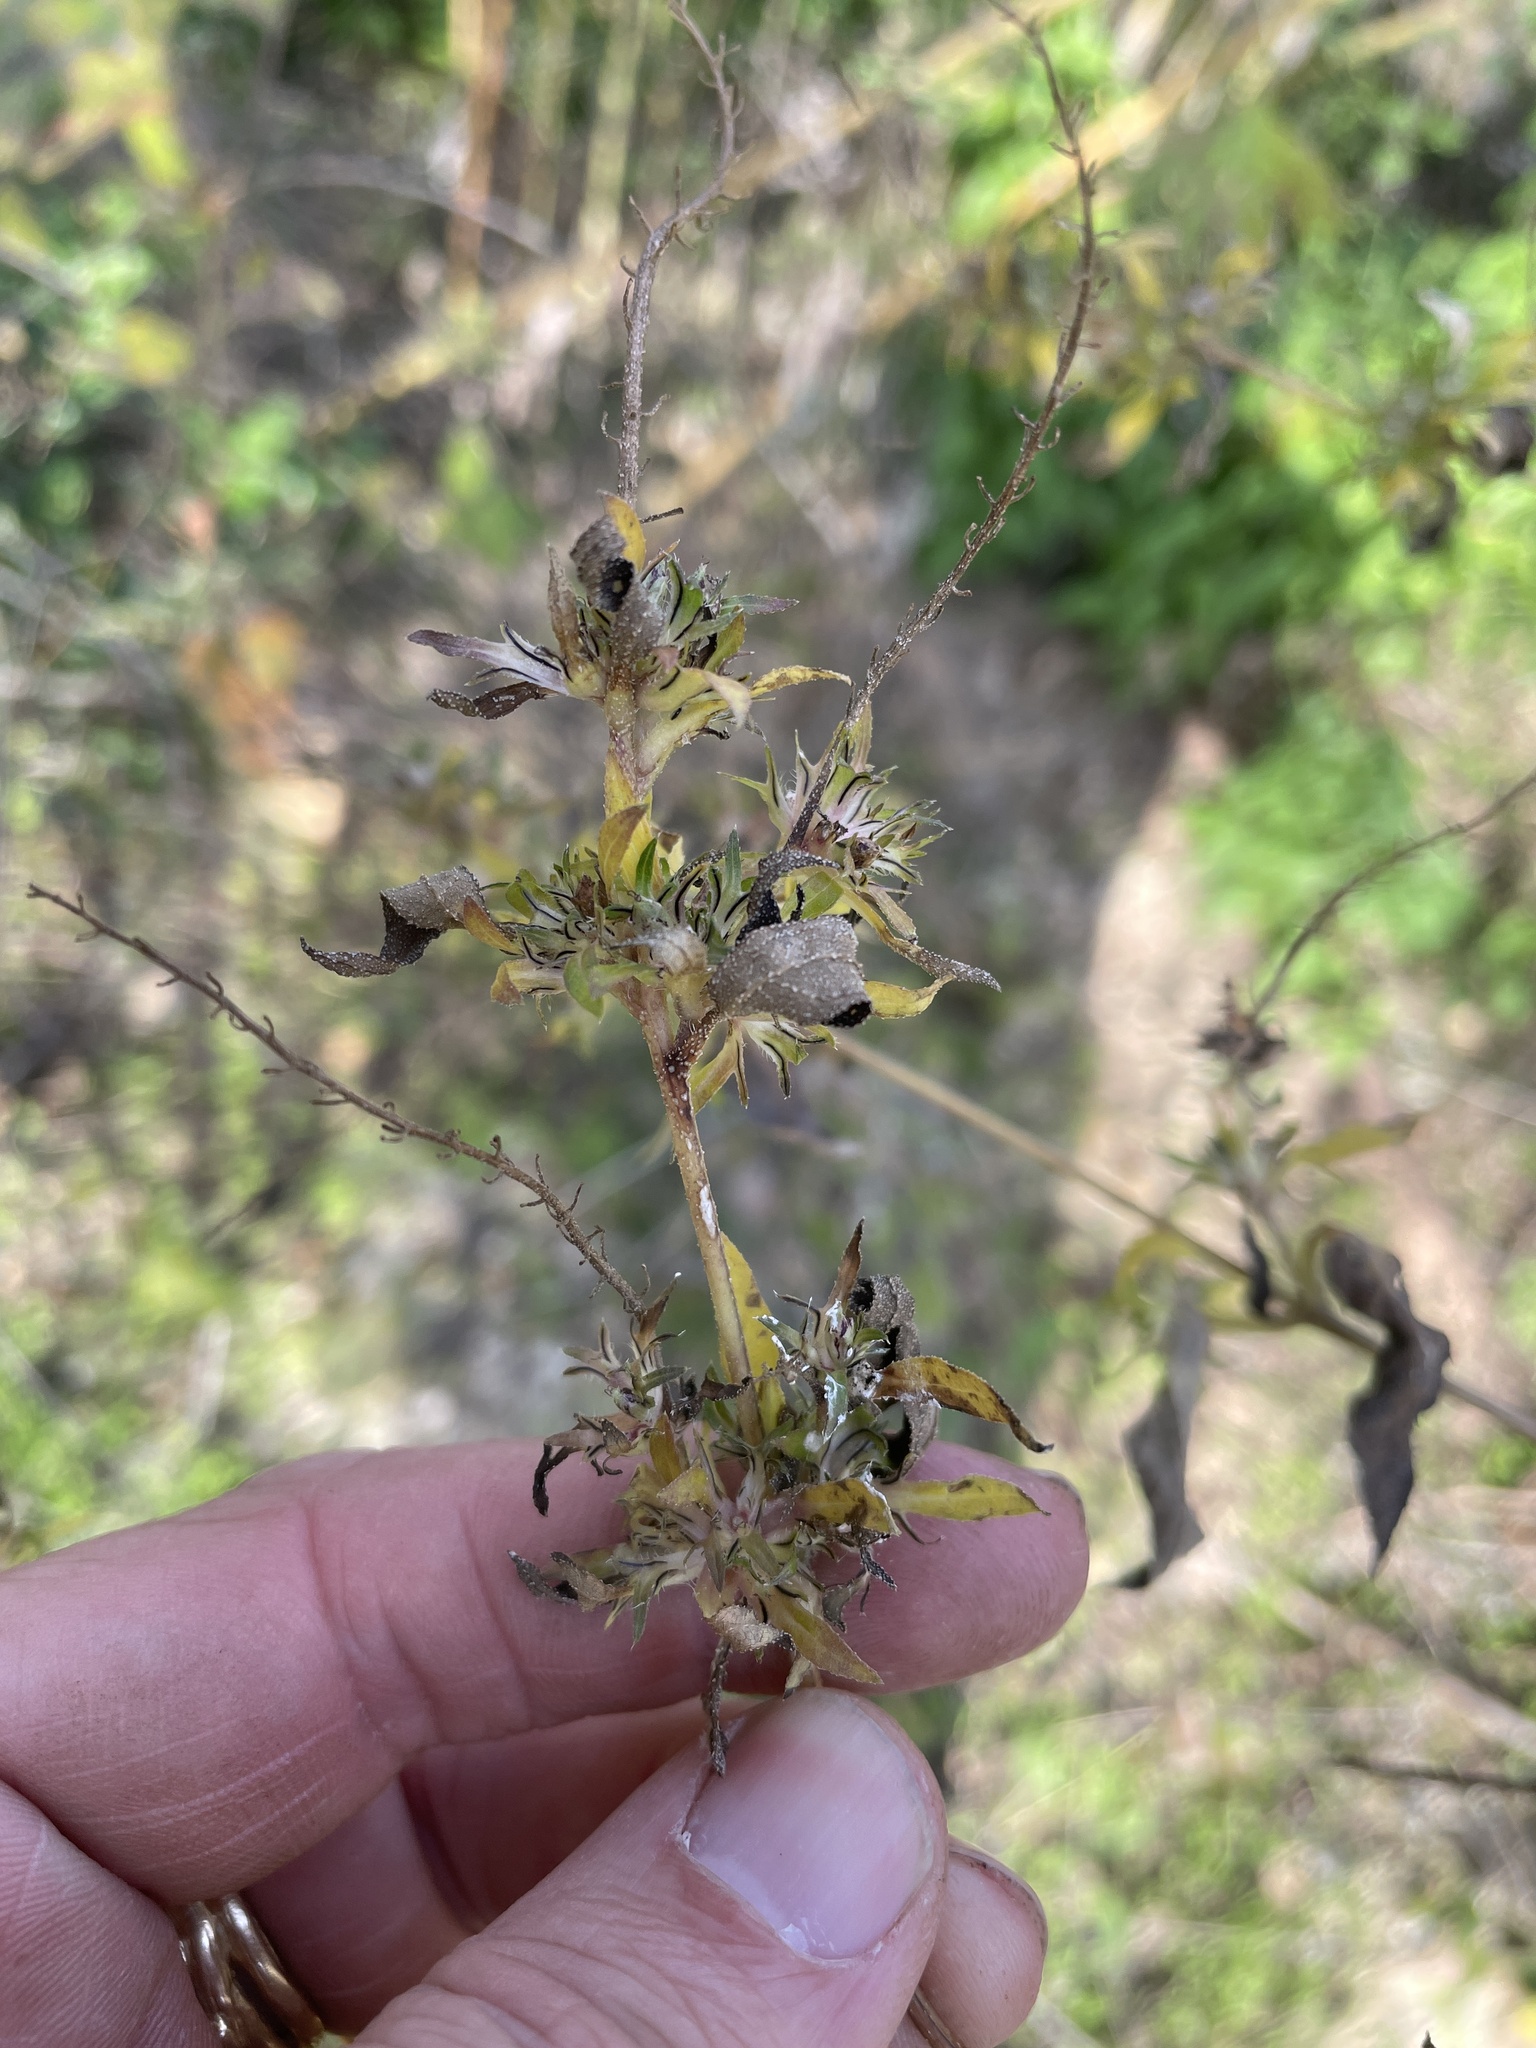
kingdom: Plantae
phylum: Tracheophyta
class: Magnoliopsida
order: Asterales
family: Asteraceae
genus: Ambrosia
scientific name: Ambrosia trifida
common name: Giant ragweed
